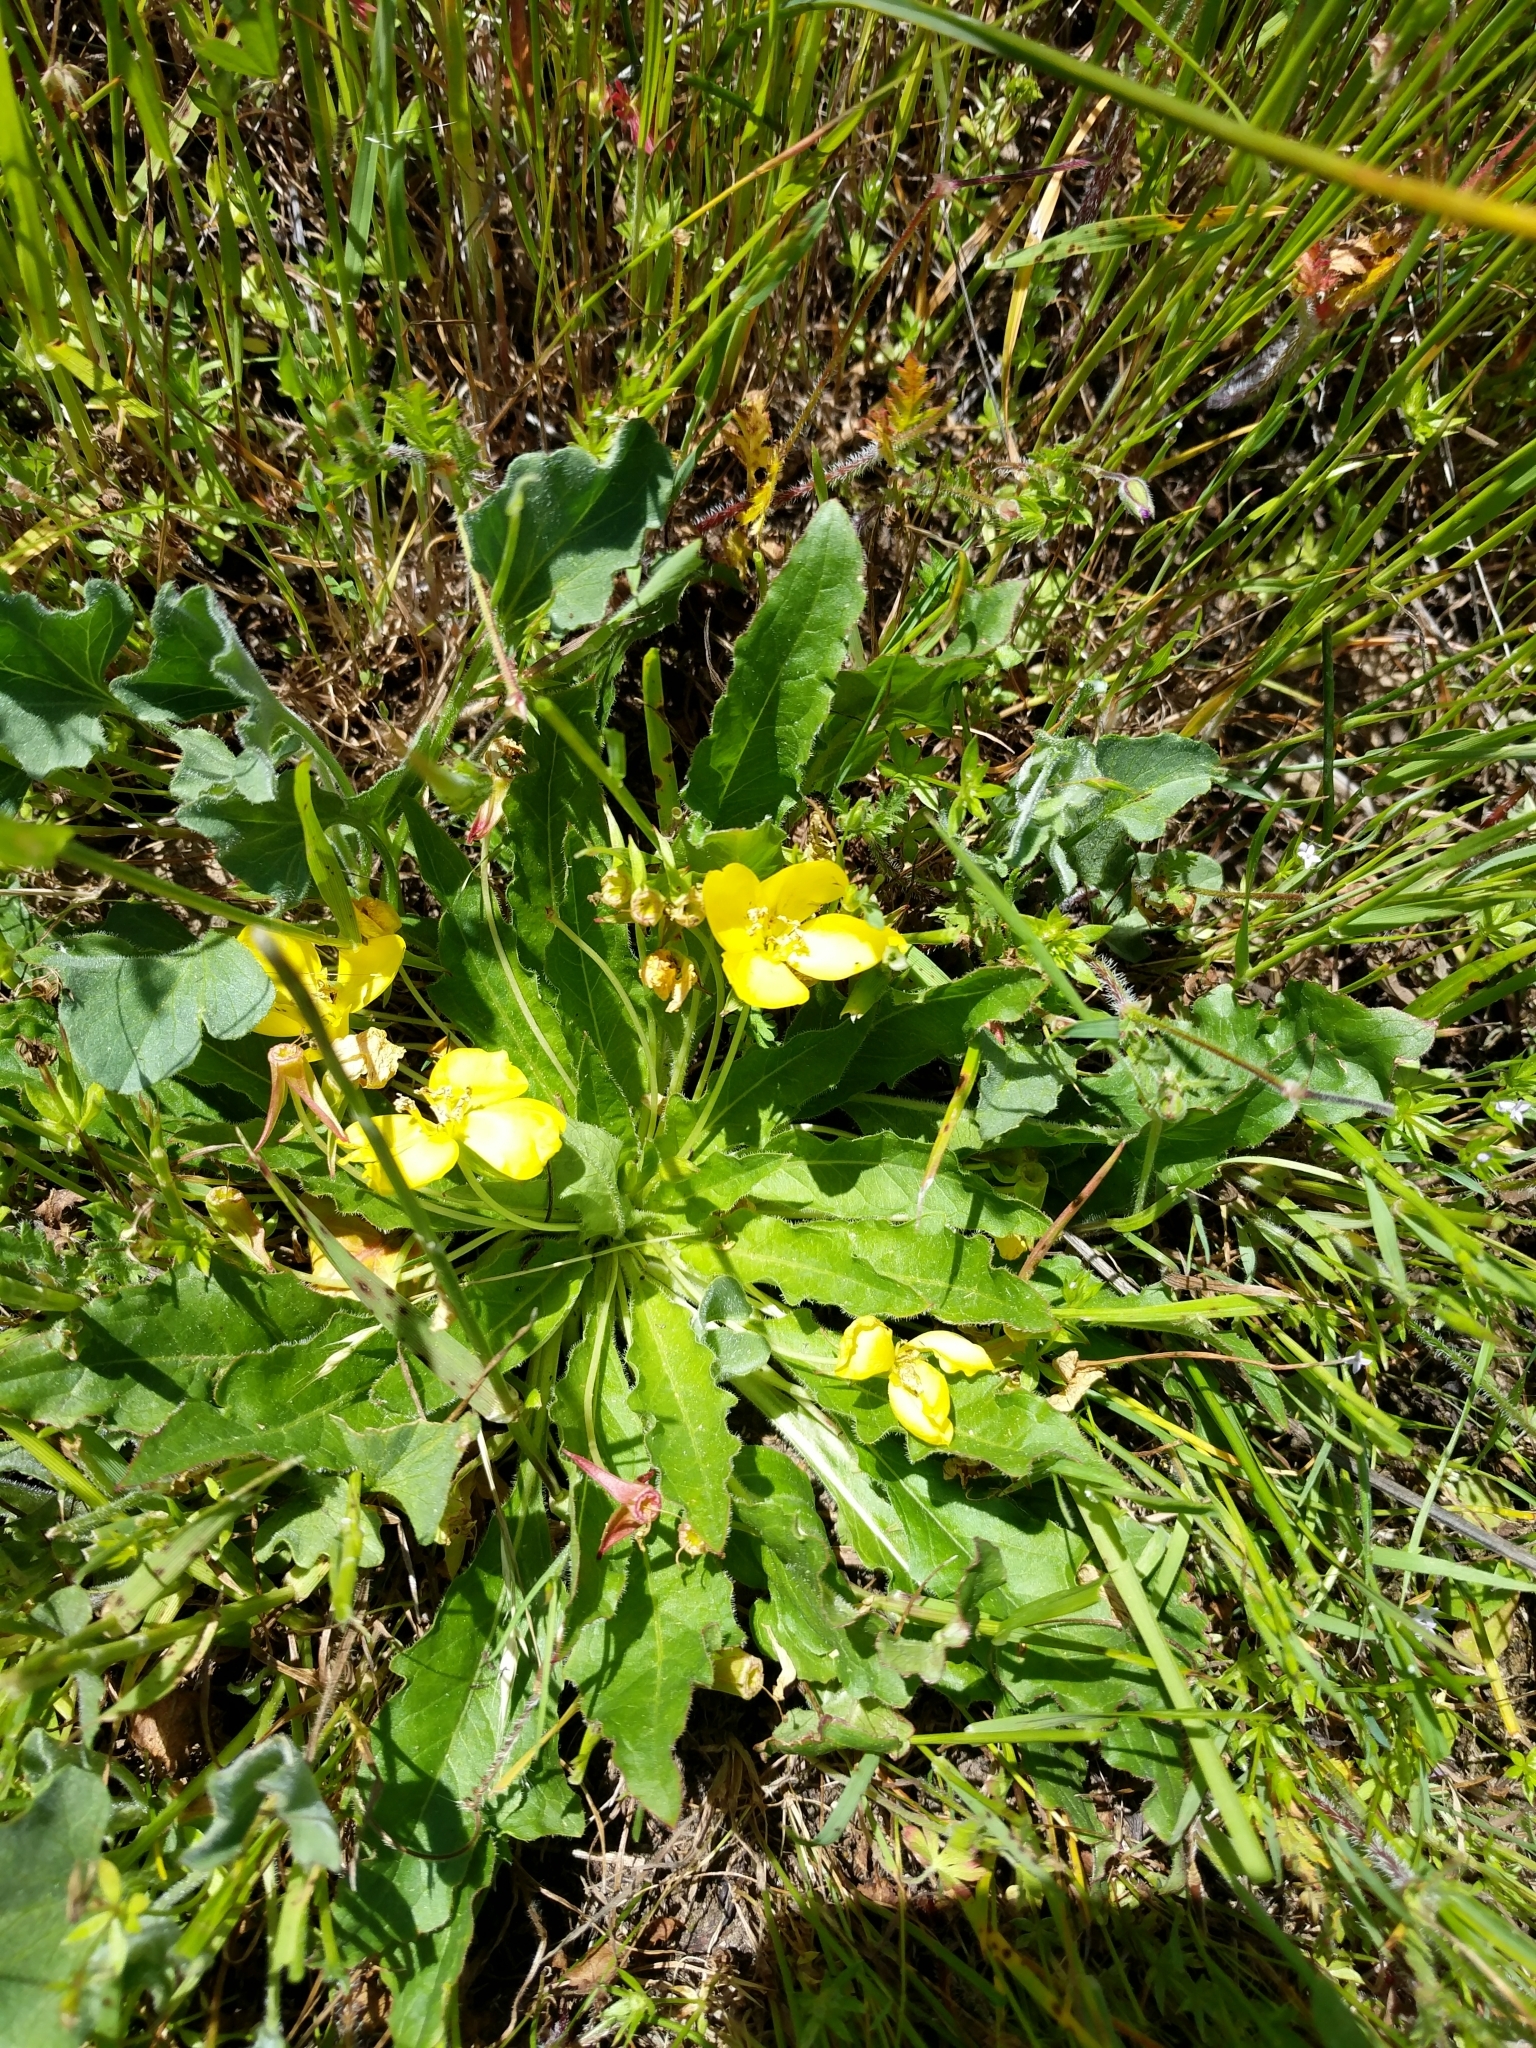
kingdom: Plantae
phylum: Tracheophyta
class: Magnoliopsida
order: Myrtales
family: Onagraceae
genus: Taraxia
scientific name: Taraxia ovata
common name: Goldeneggs
